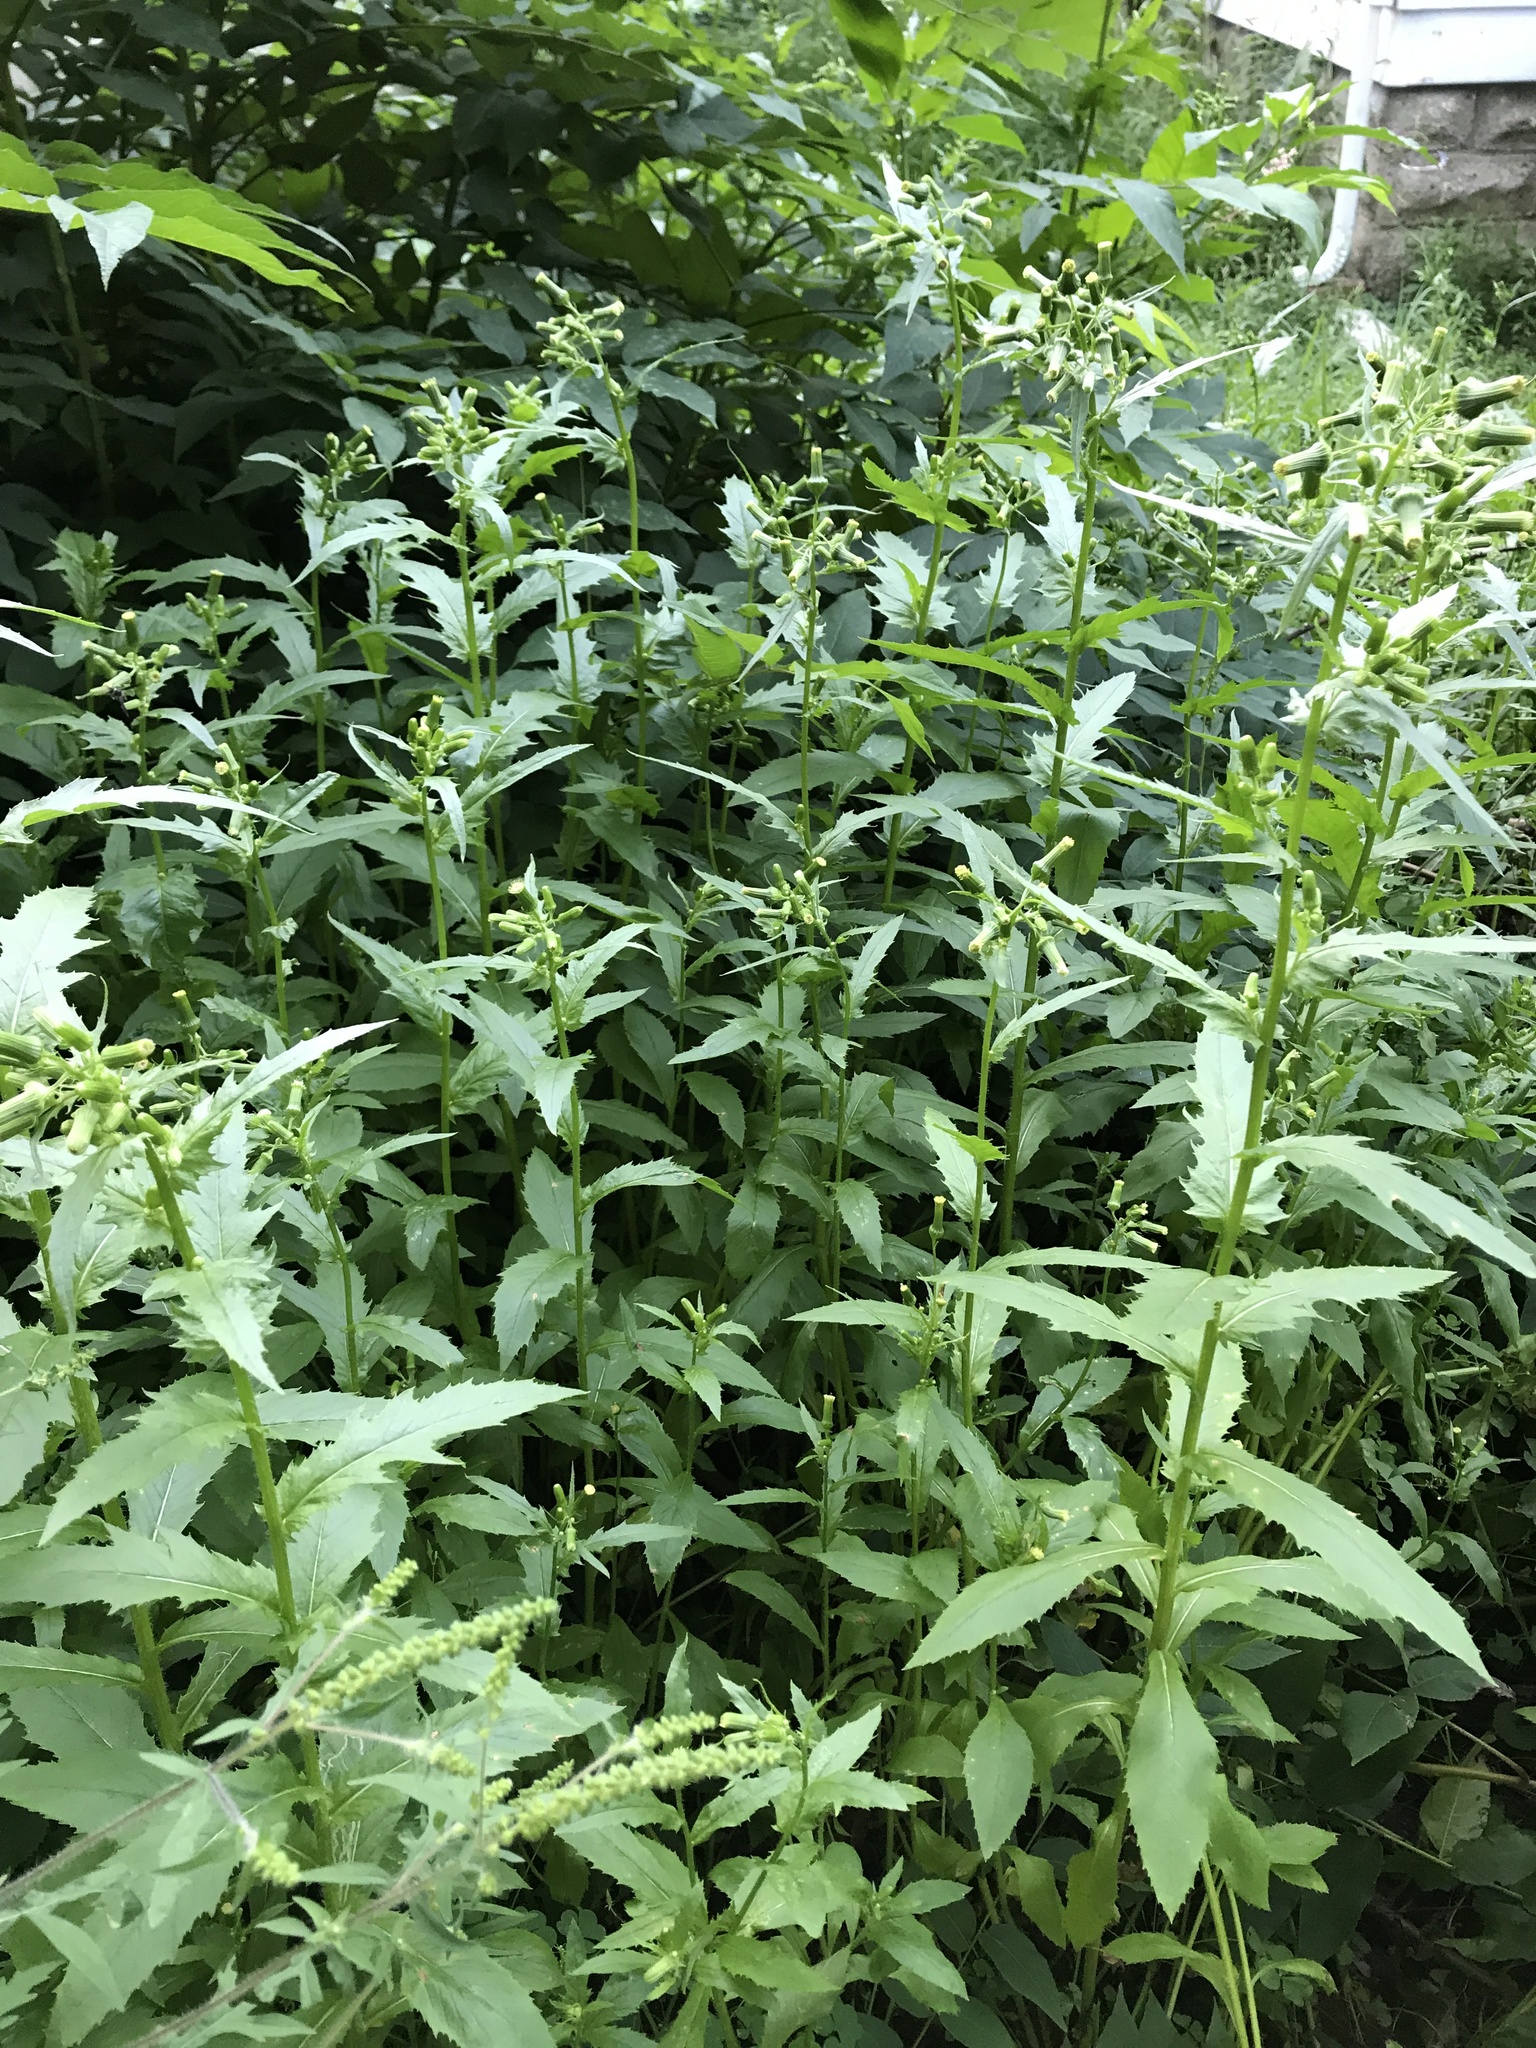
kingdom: Plantae
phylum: Tracheophyta
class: Magnoliopsida
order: Asterales
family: Asteraceae
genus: Erechtites
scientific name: Erechtites hieraciifolius
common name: American burnweed
